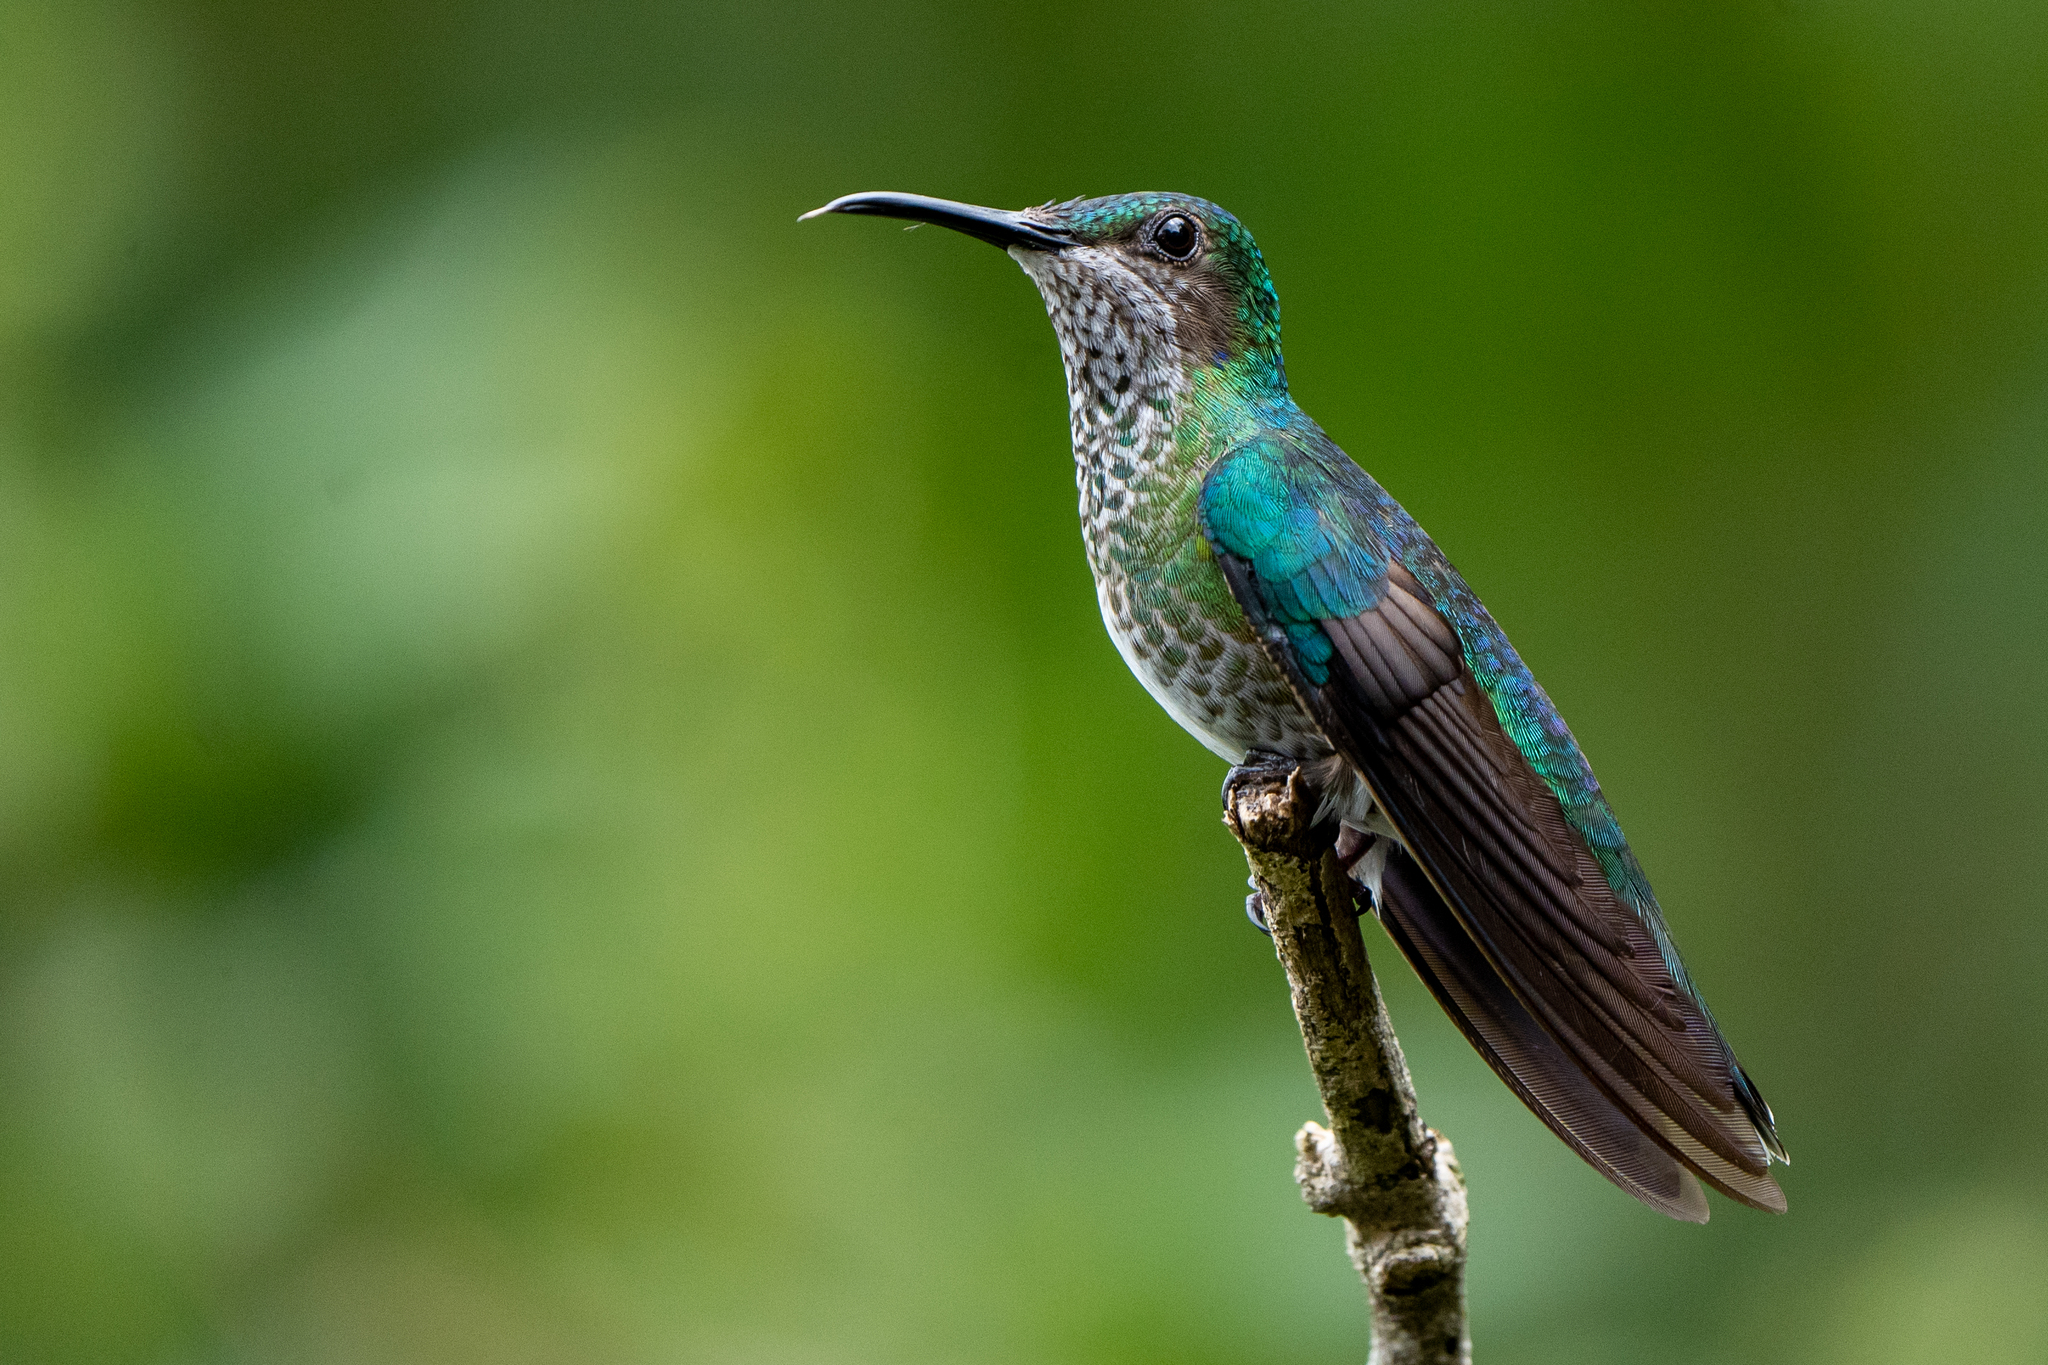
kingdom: Animalia
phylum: Chordata
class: Aves
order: Apodiformes
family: Trochilidae
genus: Florisuga
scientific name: Florisuga mellivora
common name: White-necked jacobin
